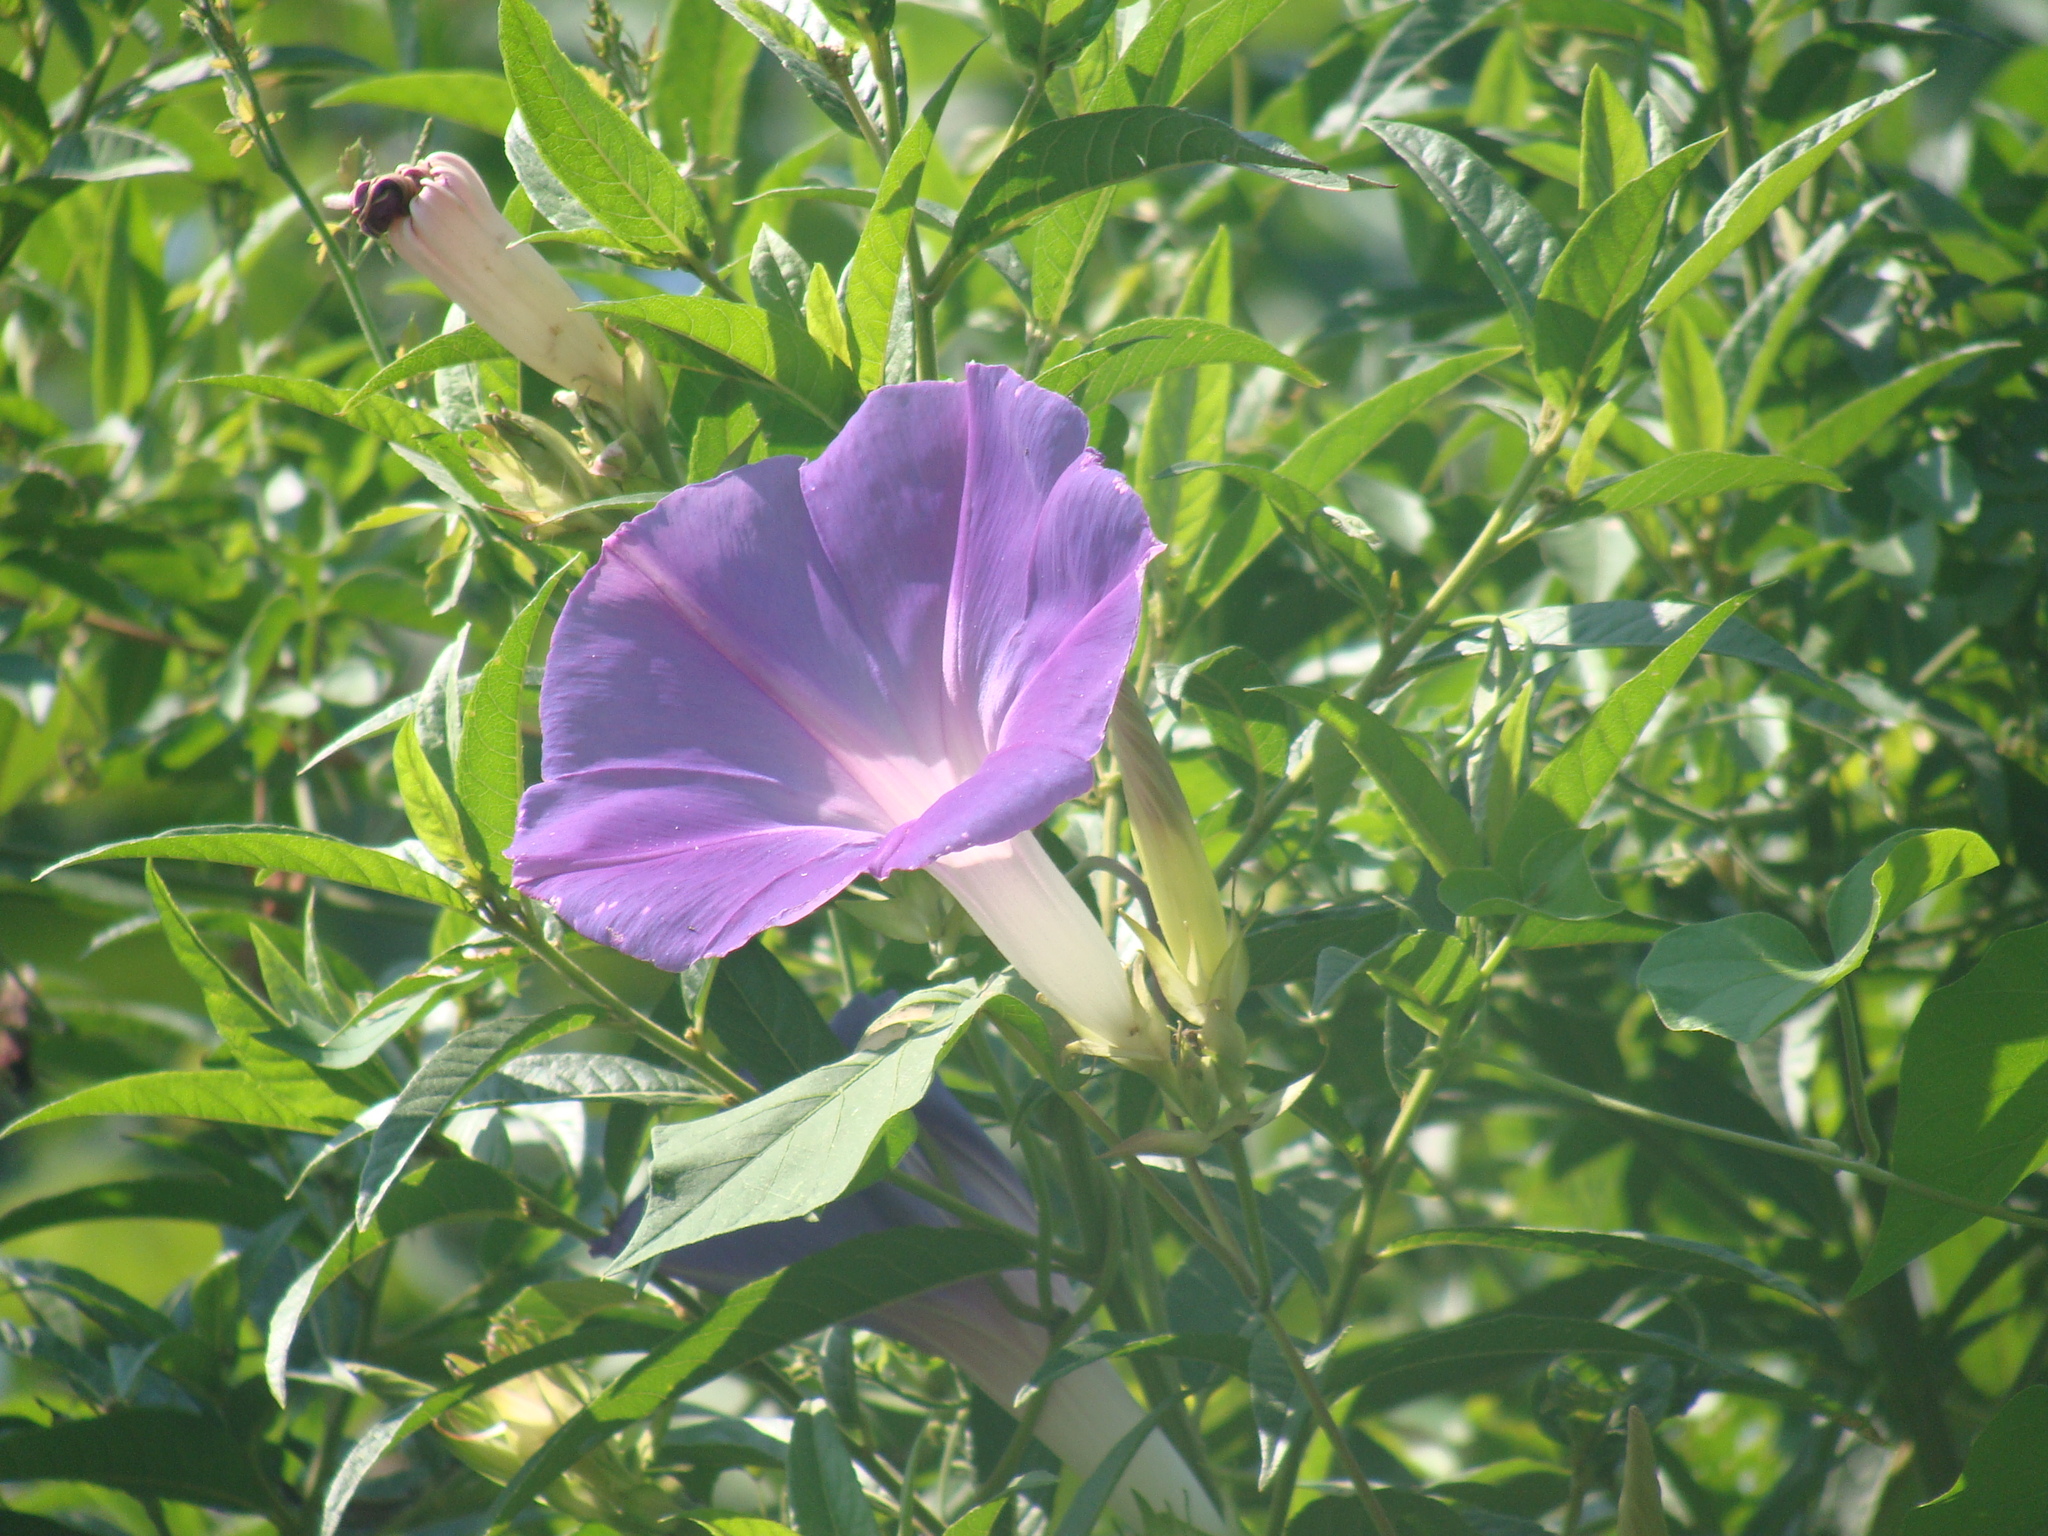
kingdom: Plantae
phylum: Tracheophyta
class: Magnoliopsida
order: Solanales
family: Convolvulaceae
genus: Ipomoea
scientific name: Ipomoea indica
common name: Blue dawnflower
